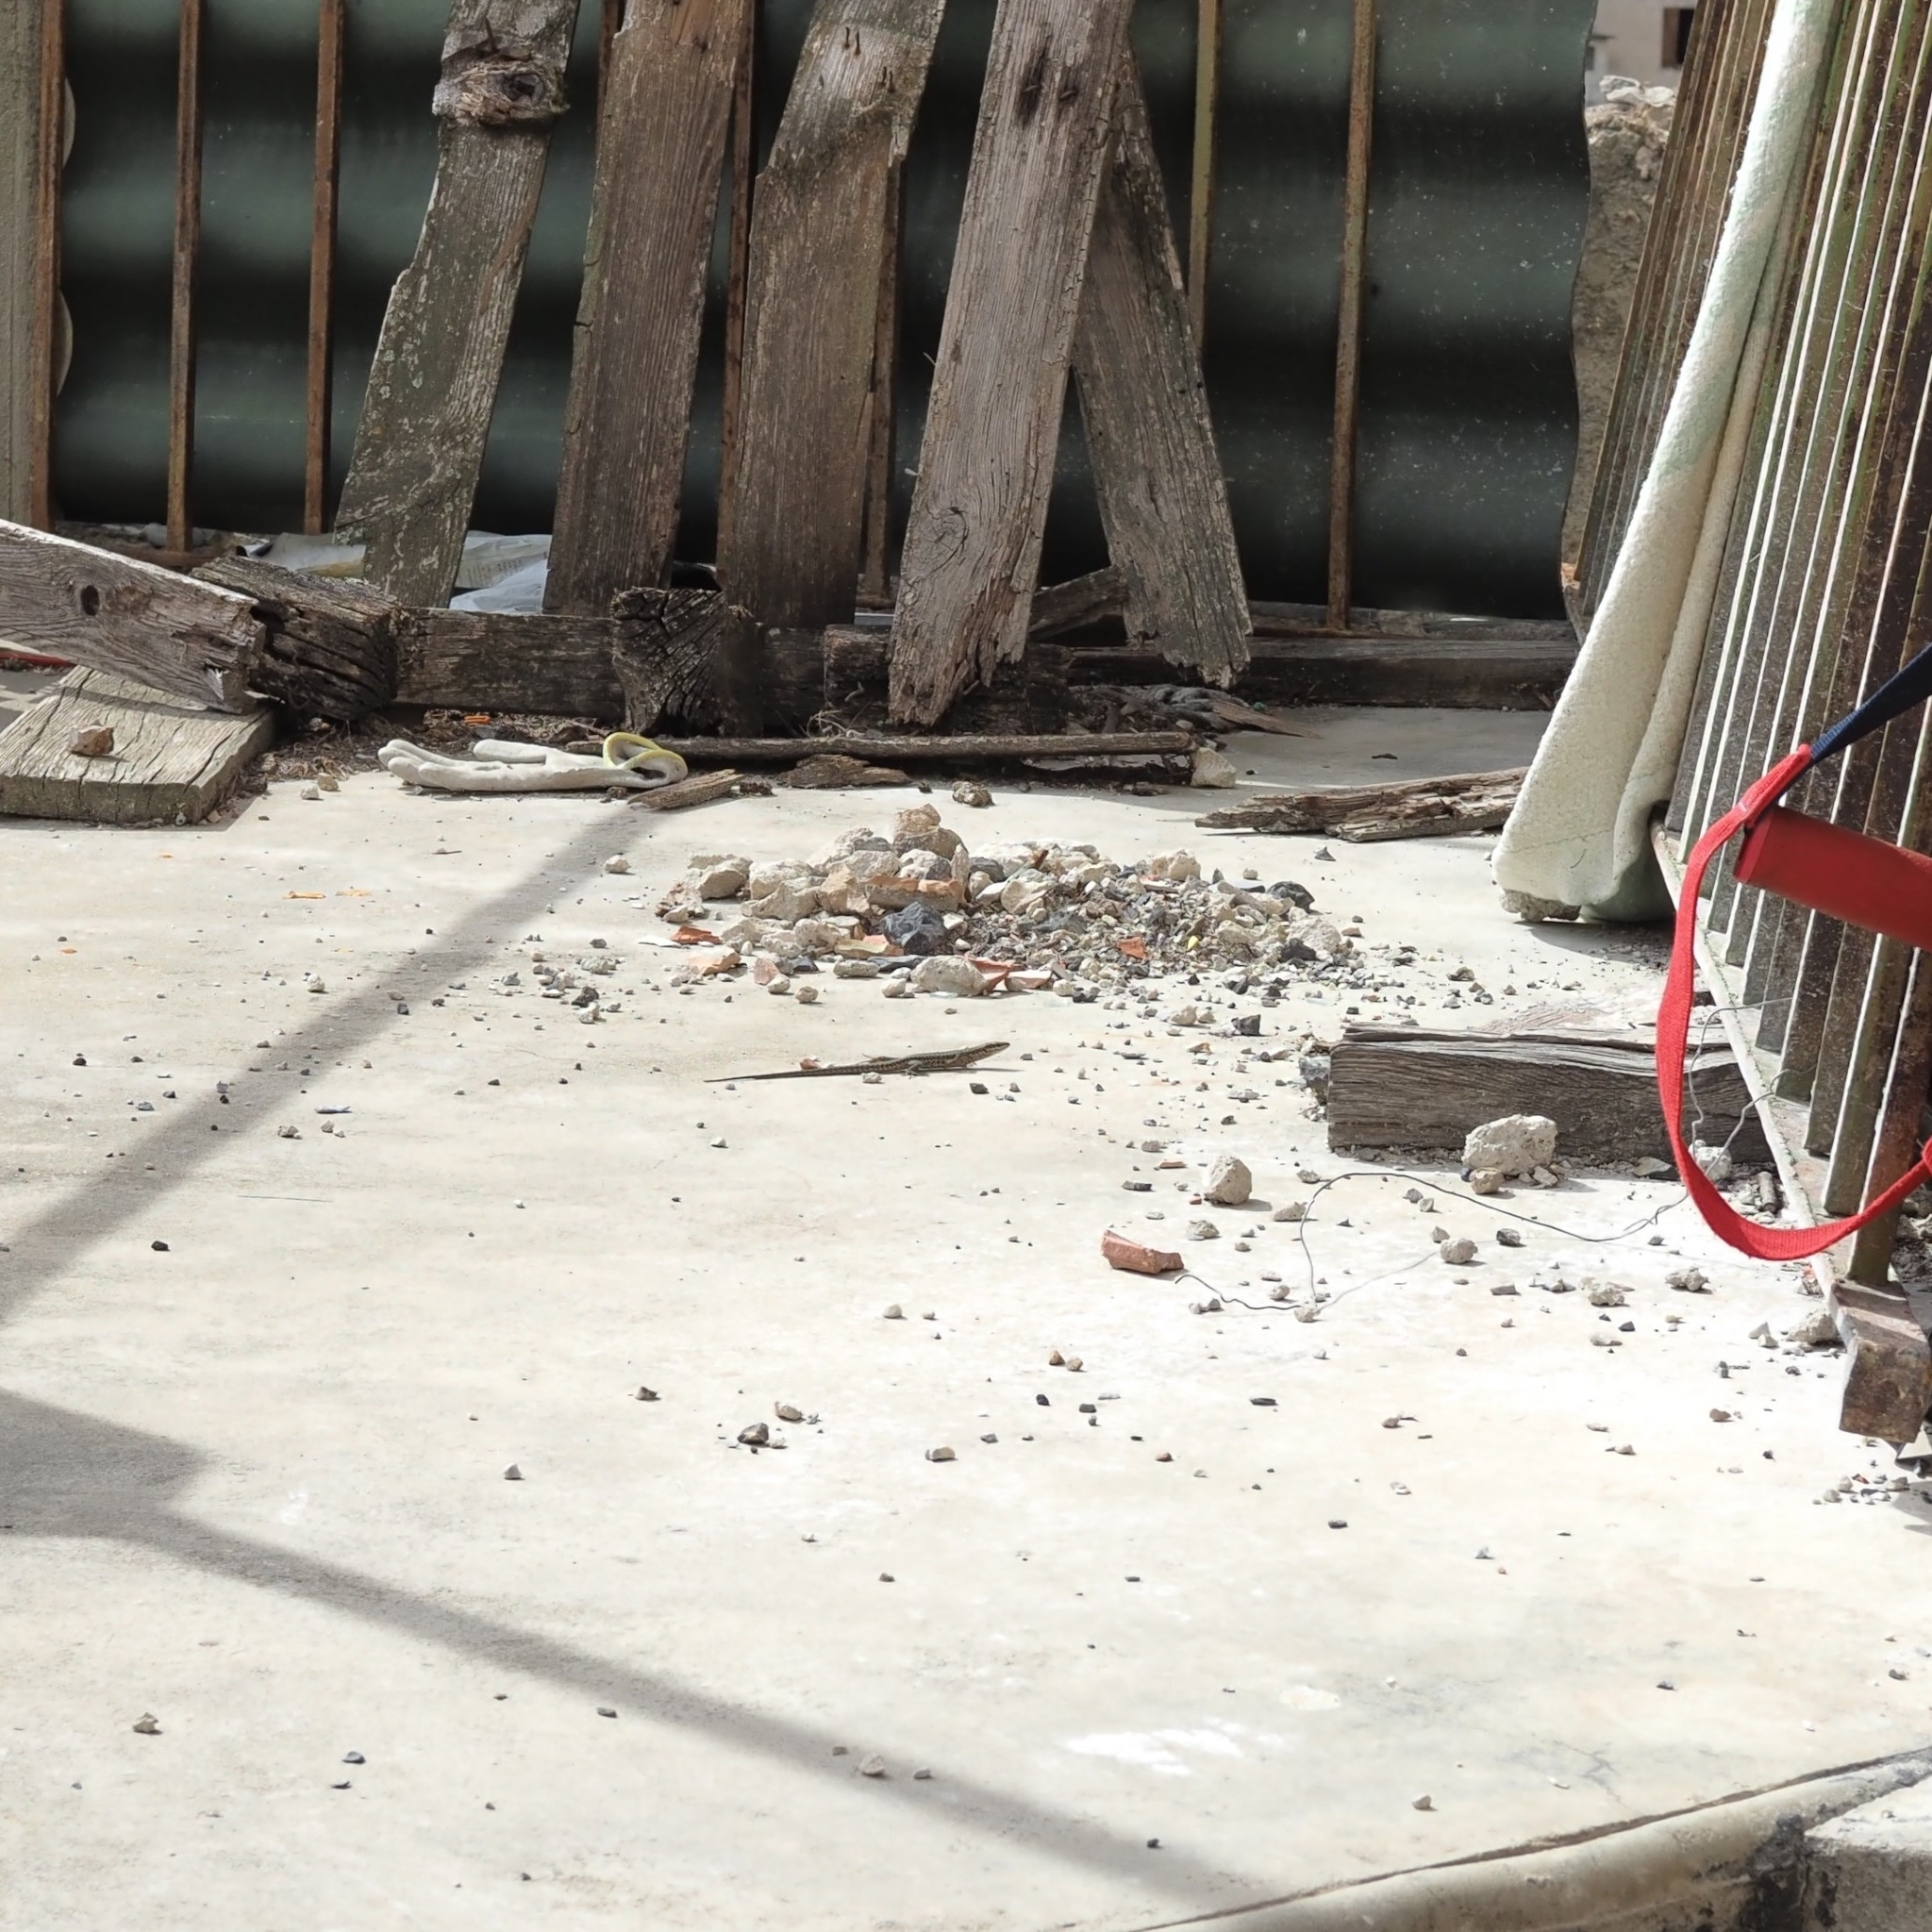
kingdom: Animalia
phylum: Chordata
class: Squamata
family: Lacertidae
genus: Podarcis
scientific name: Podarcis muralis
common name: Common wall lizard
